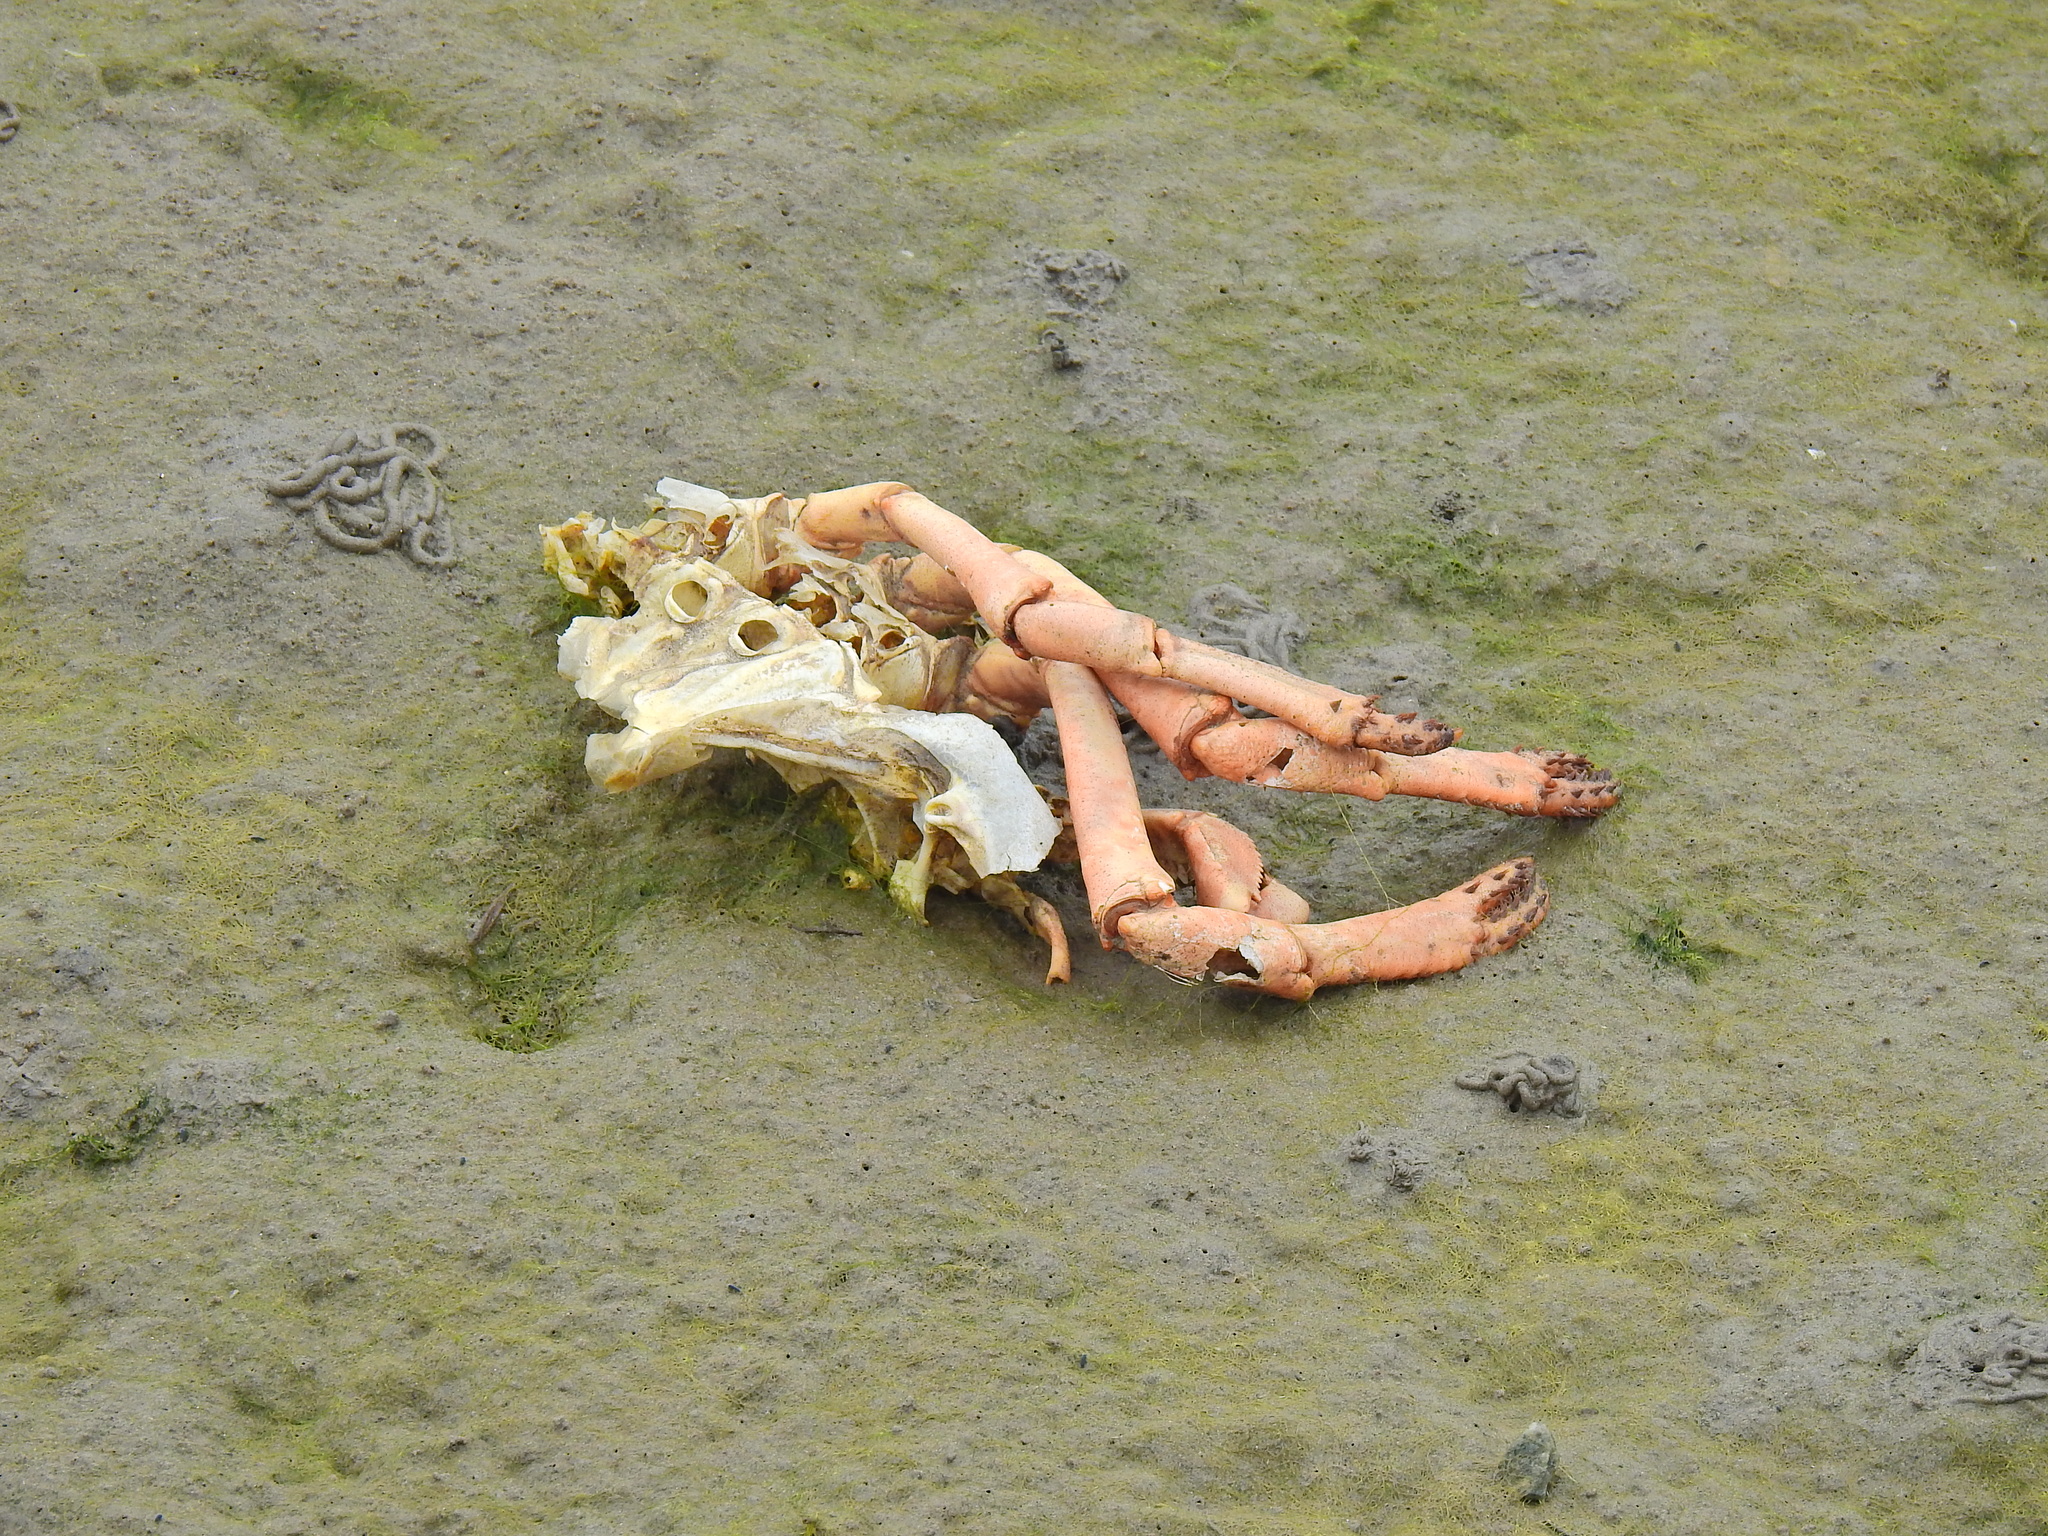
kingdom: Animalia
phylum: Arthropoda
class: Malacostraca
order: Decapoda
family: Majidae
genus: Maja
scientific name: Maja brachydactyla
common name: Common spider crab
